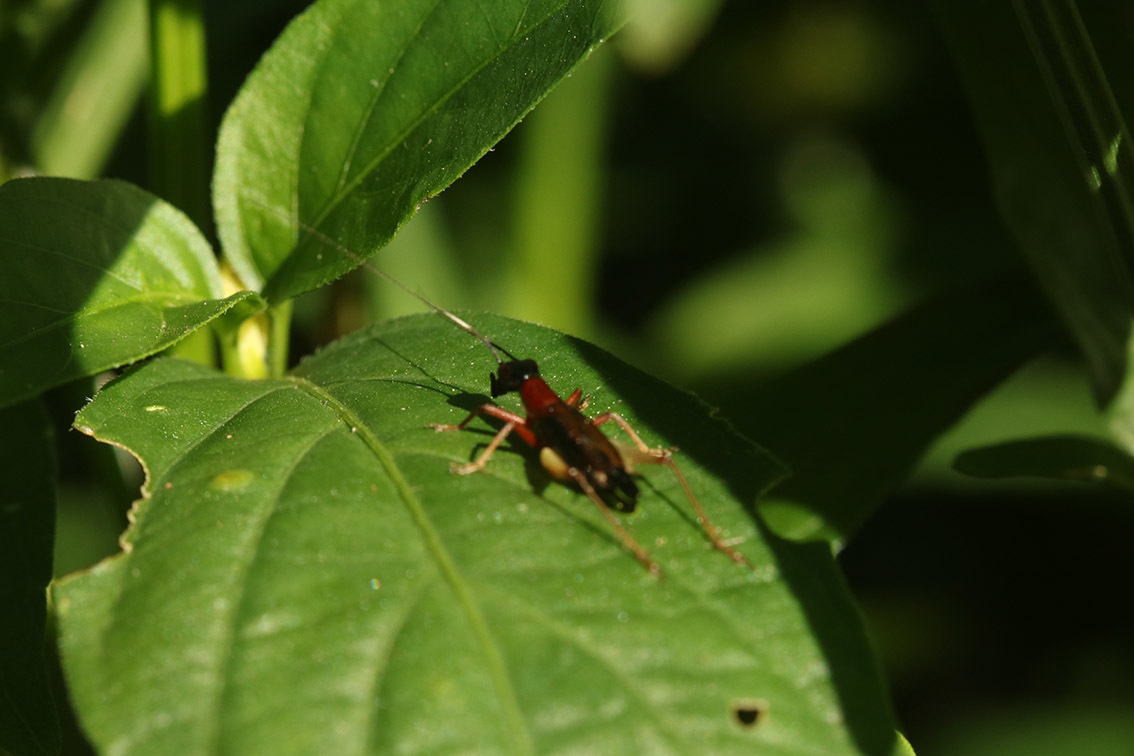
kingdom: Animalia
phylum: Arthropoda
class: Insecta
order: Orthoptera
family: Trigonidiidae
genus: Cranistus
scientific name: Cranistus colliurides
